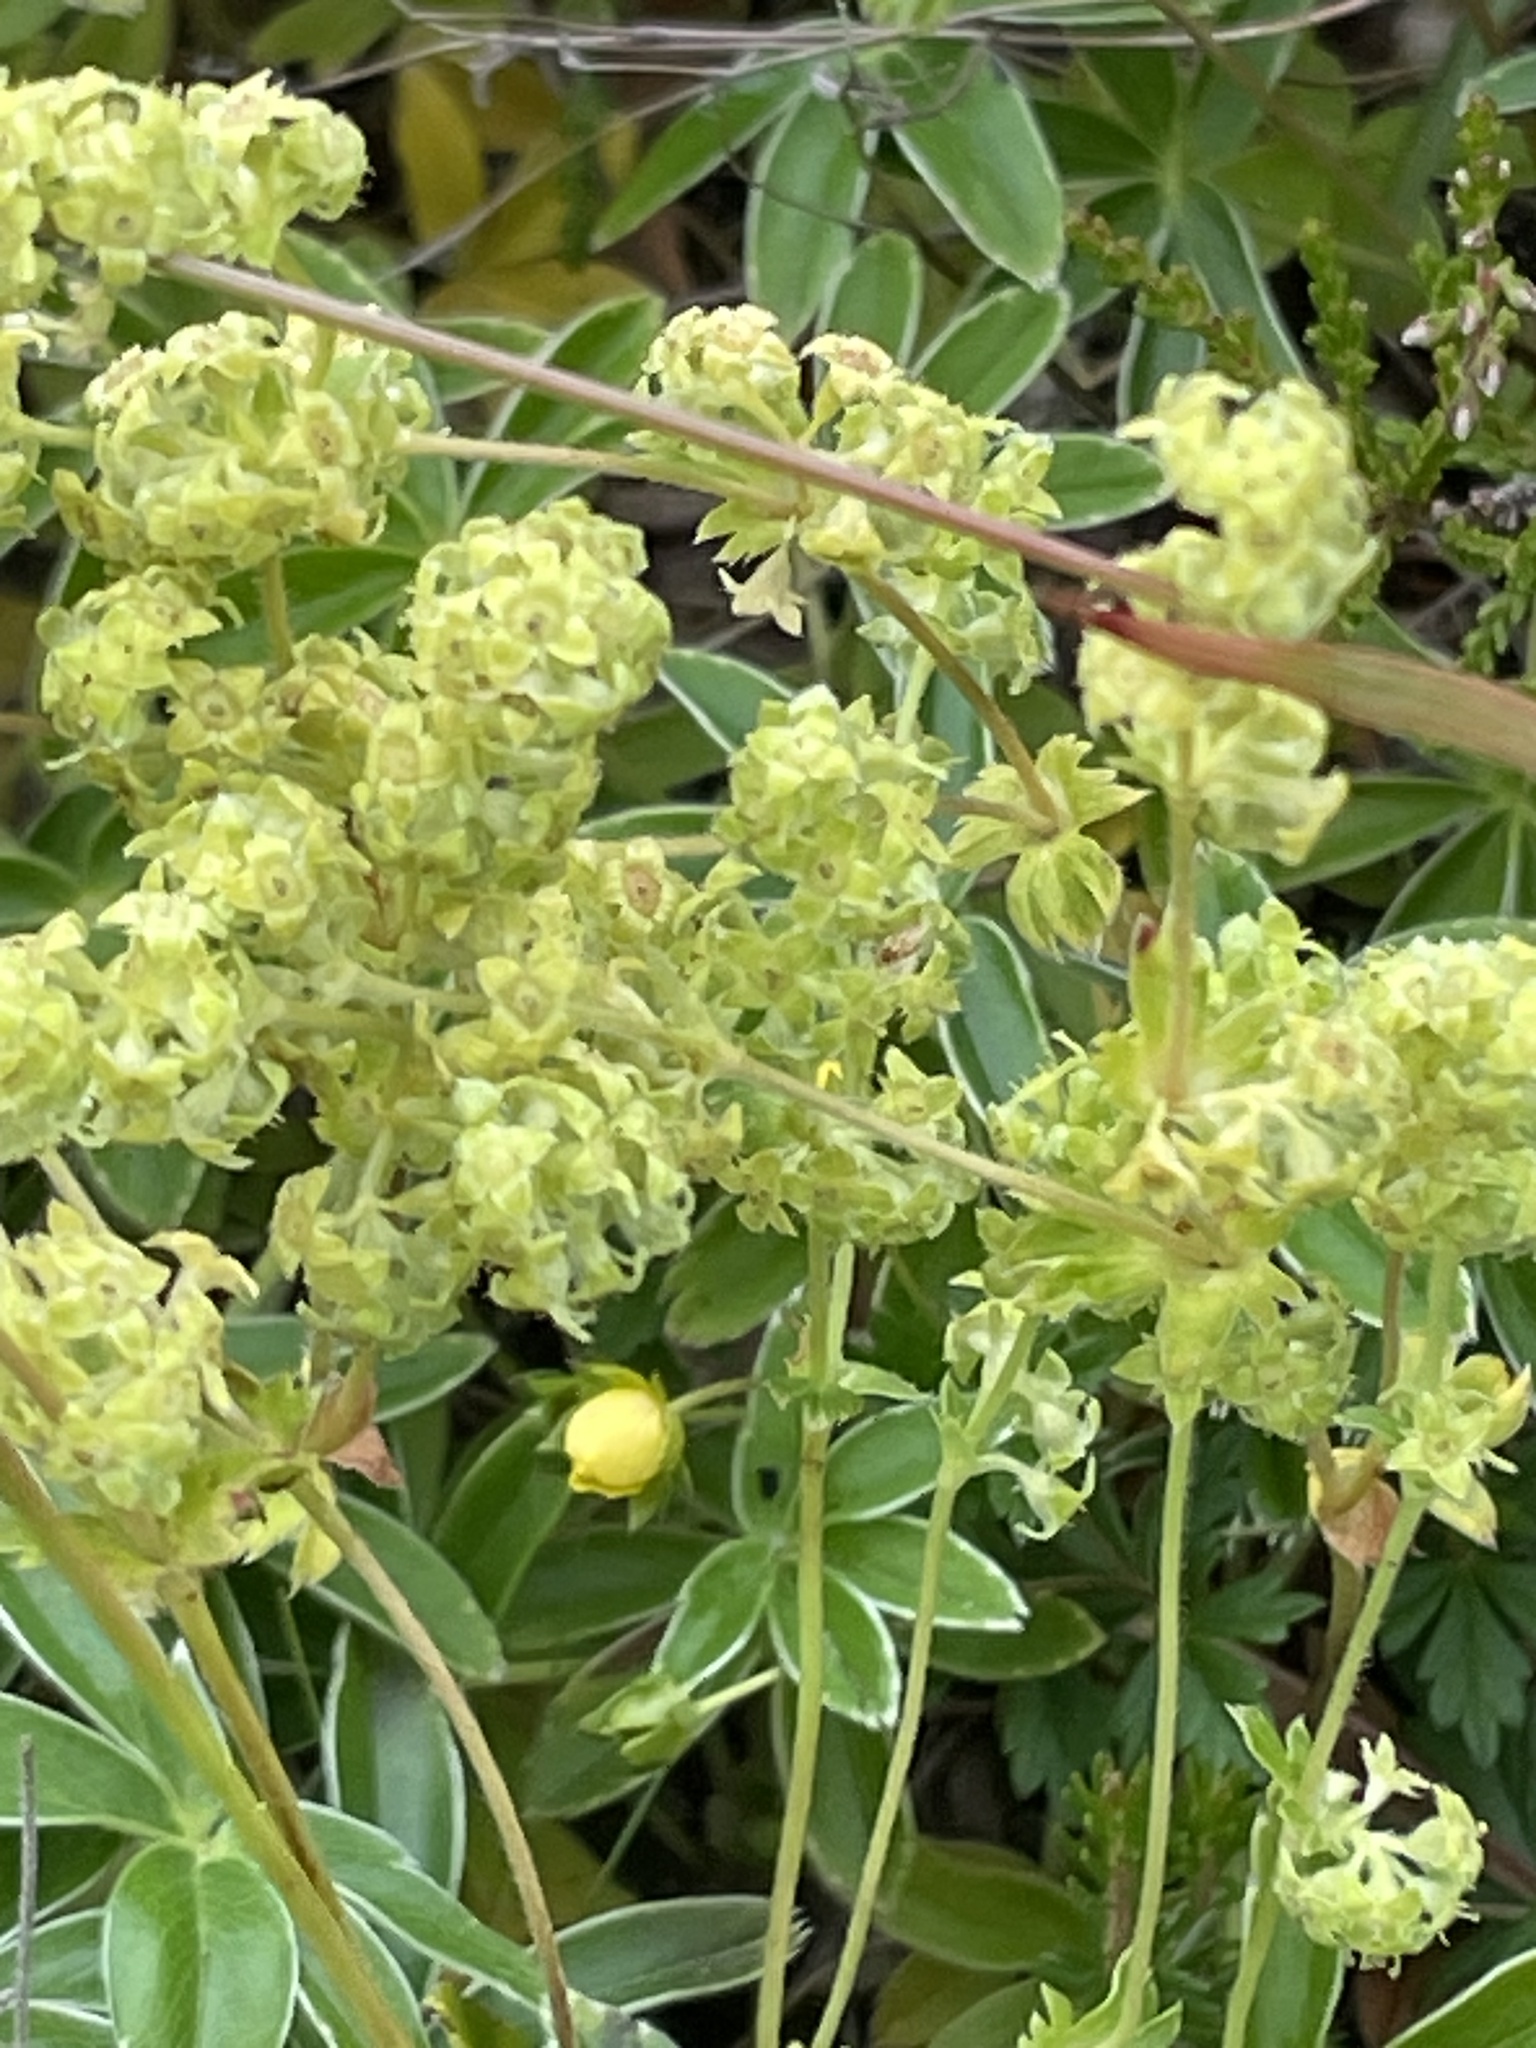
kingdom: Plantae
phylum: Tracheophyta
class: Magnoliopsida
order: Rosales
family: Rosaceae
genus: Alchemilla
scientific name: Alchemilla alpina
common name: Alpine lady's-mantle
